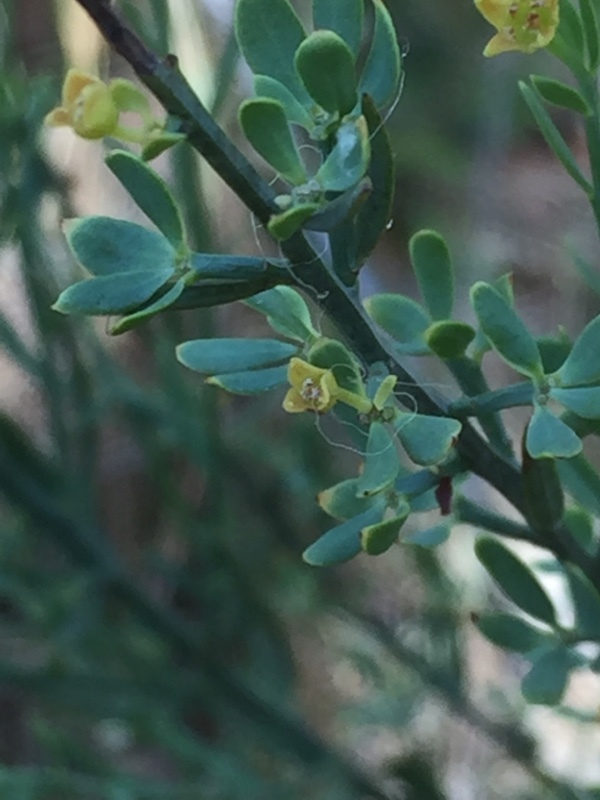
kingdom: Plantae
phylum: Tracheophyta
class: Magnoliopsida
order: Santalales
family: Santalaceae
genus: Osyris
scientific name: Osyris alba
